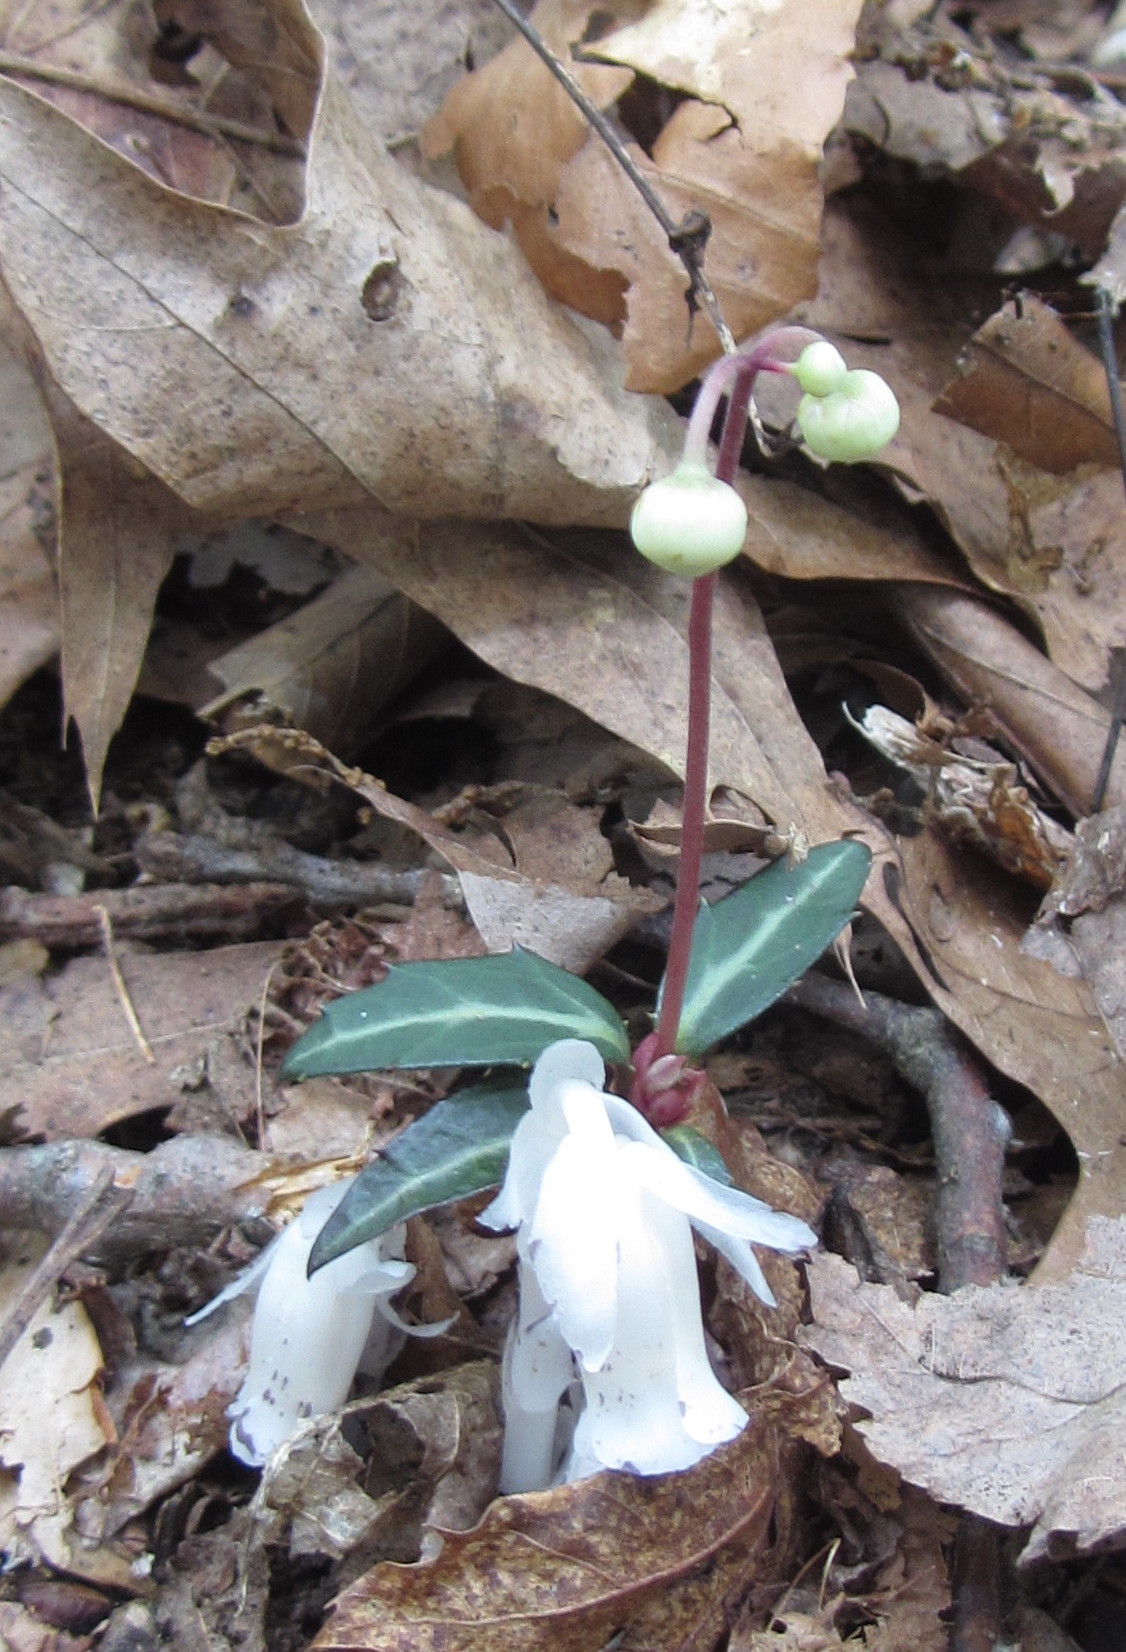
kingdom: Plantae
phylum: Tracheophyta
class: Magnoliopsida
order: Ericales
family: Ericaceae
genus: Chimaphila
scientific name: Chimaphila maculata
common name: Spotted pipsissewa
